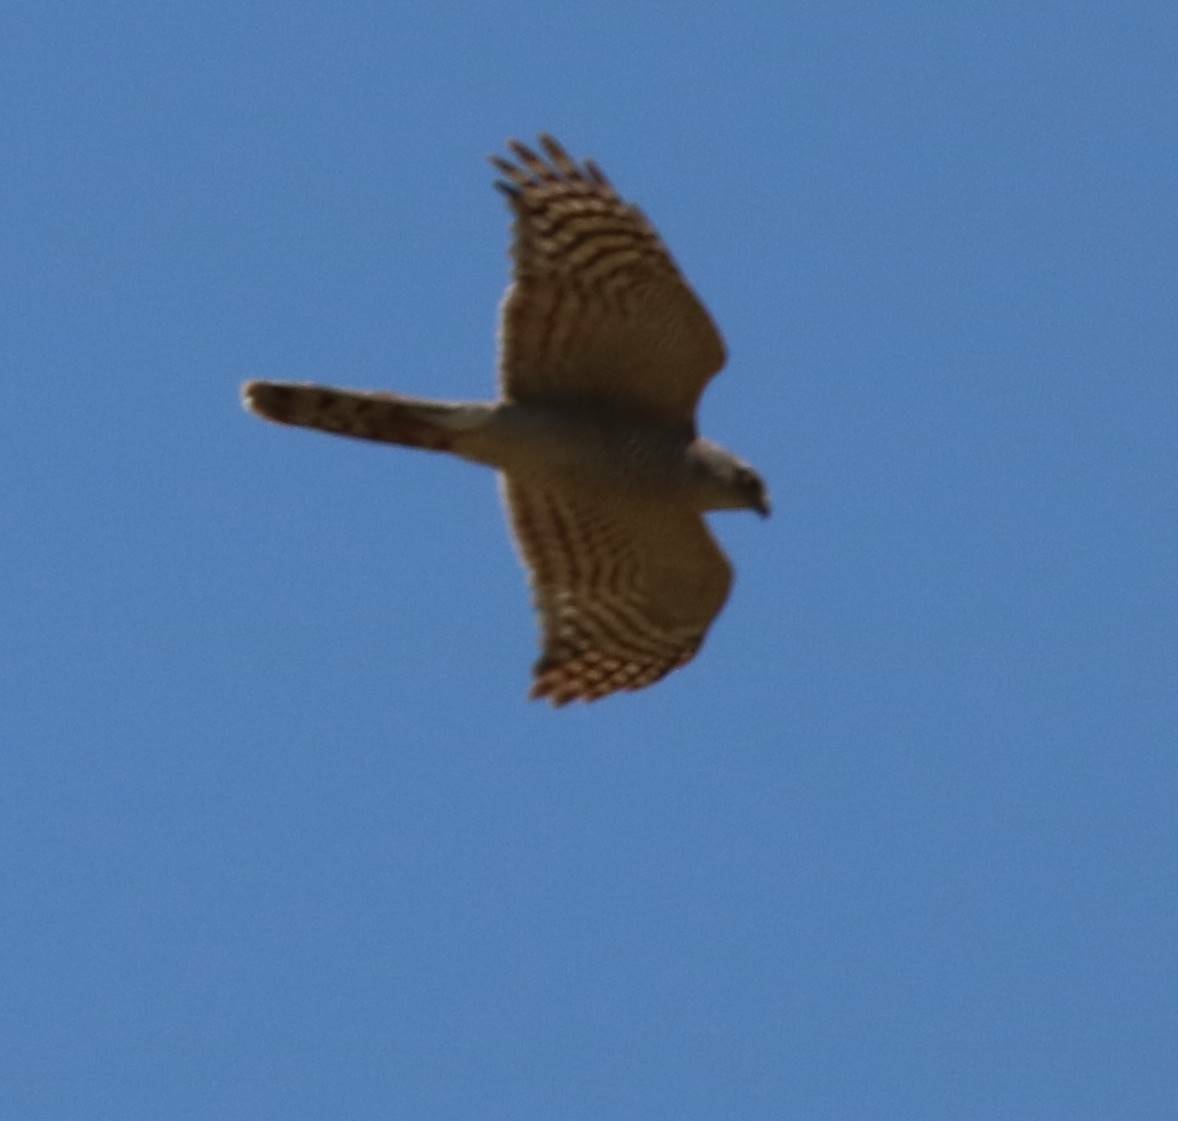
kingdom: Animalia
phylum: Chordata
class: Aves
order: Accipitriformes
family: Accipitridae
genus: Accipiter
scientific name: Accipiter nisus
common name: Eurasian sparrowhawk
